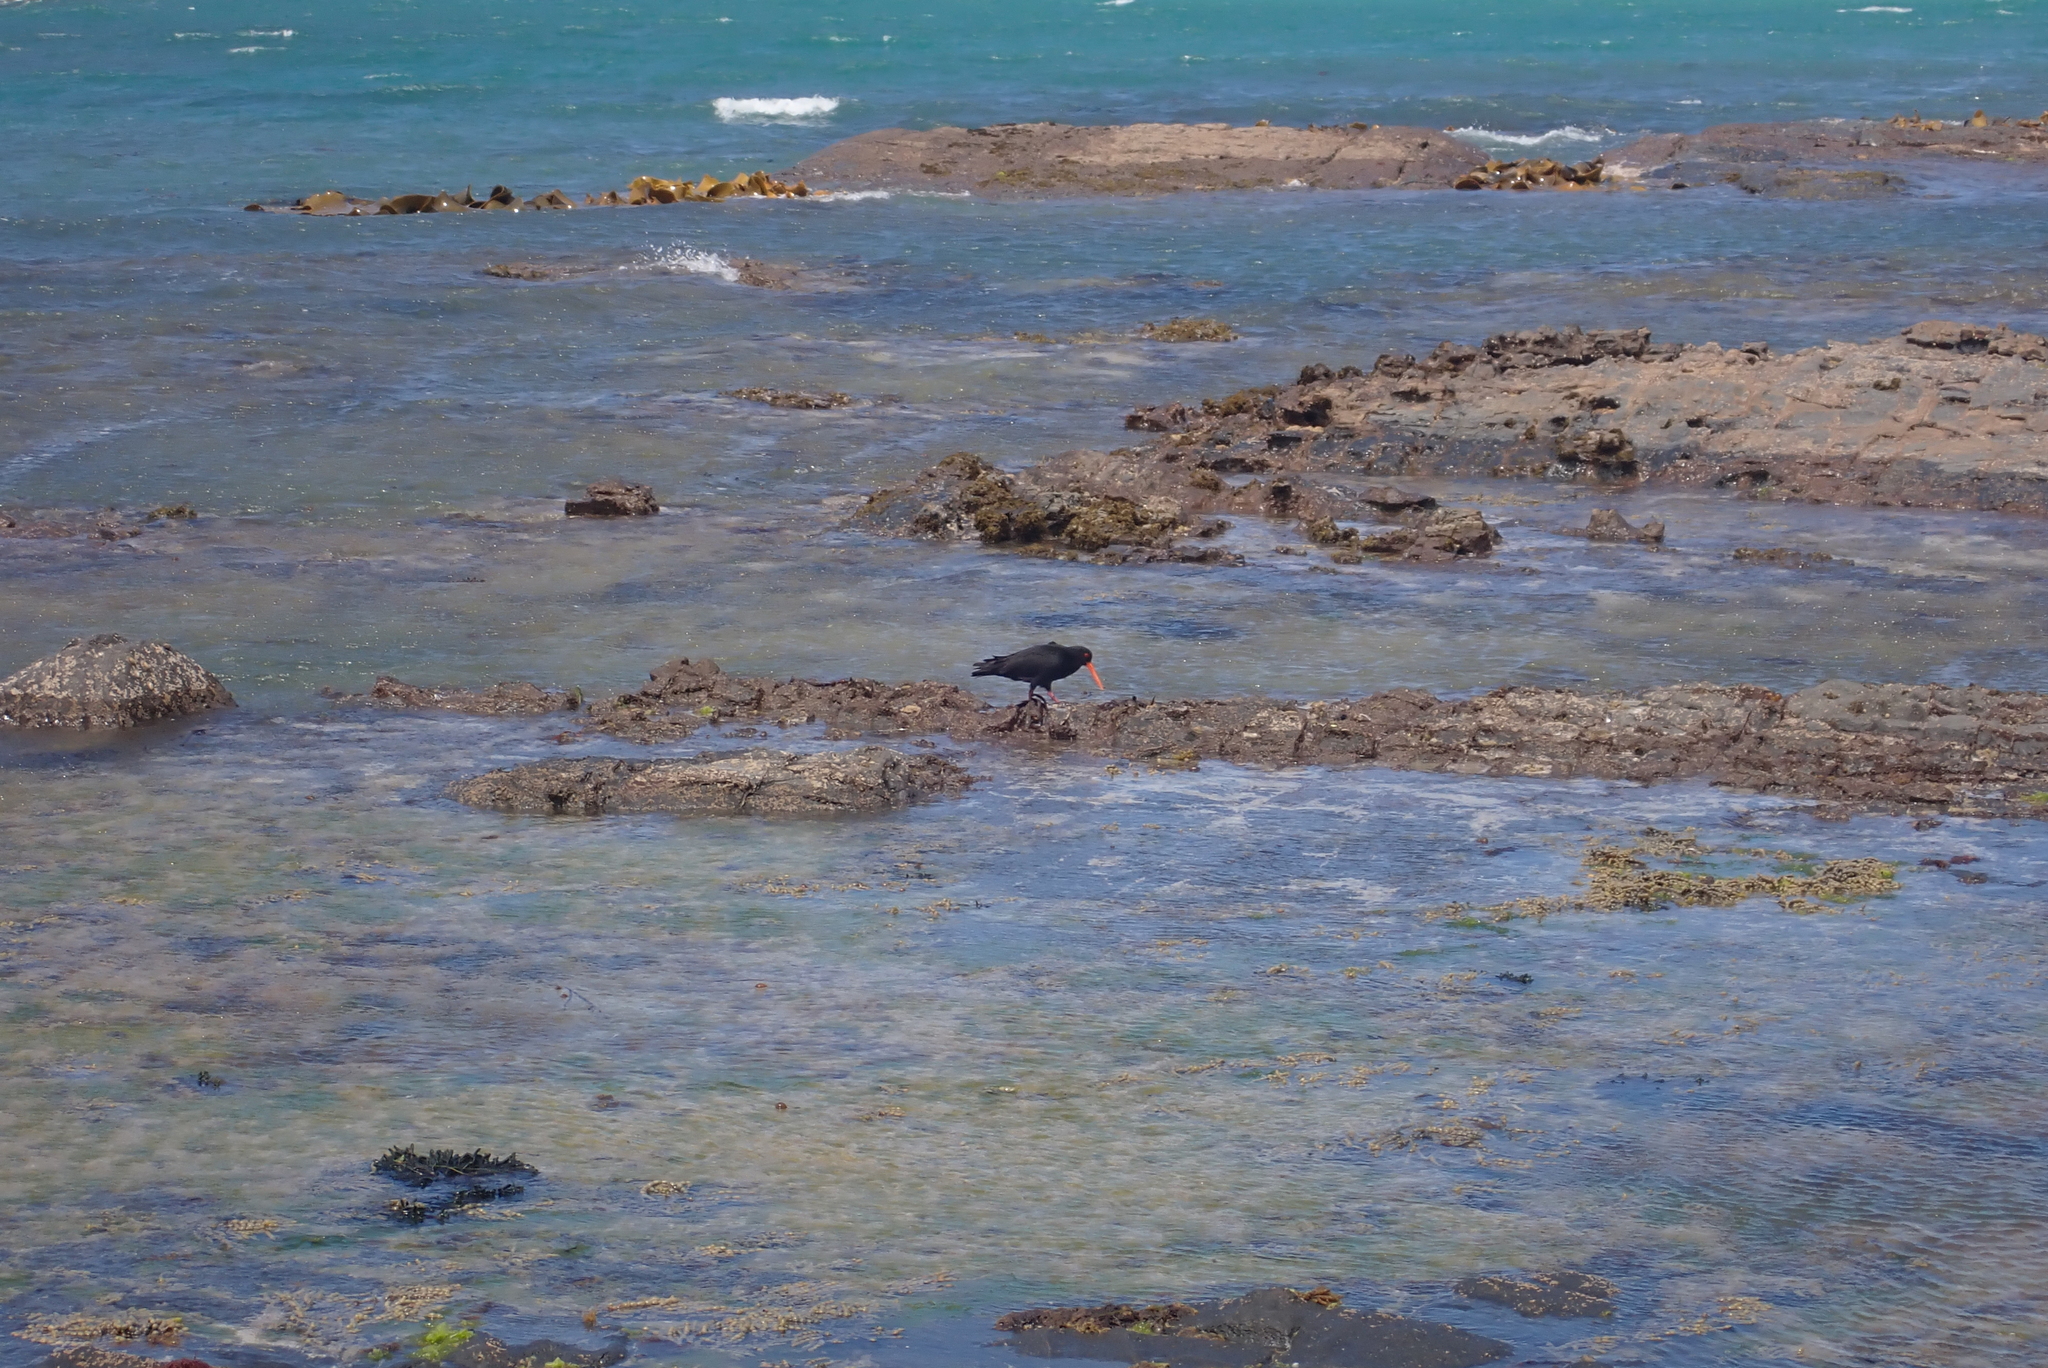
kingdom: Animalia
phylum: Chordata
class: Aves
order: Charadriiformes
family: Haematopodidae
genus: Haematopus
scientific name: Haematopus unicolor
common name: Variable oystercatcher
